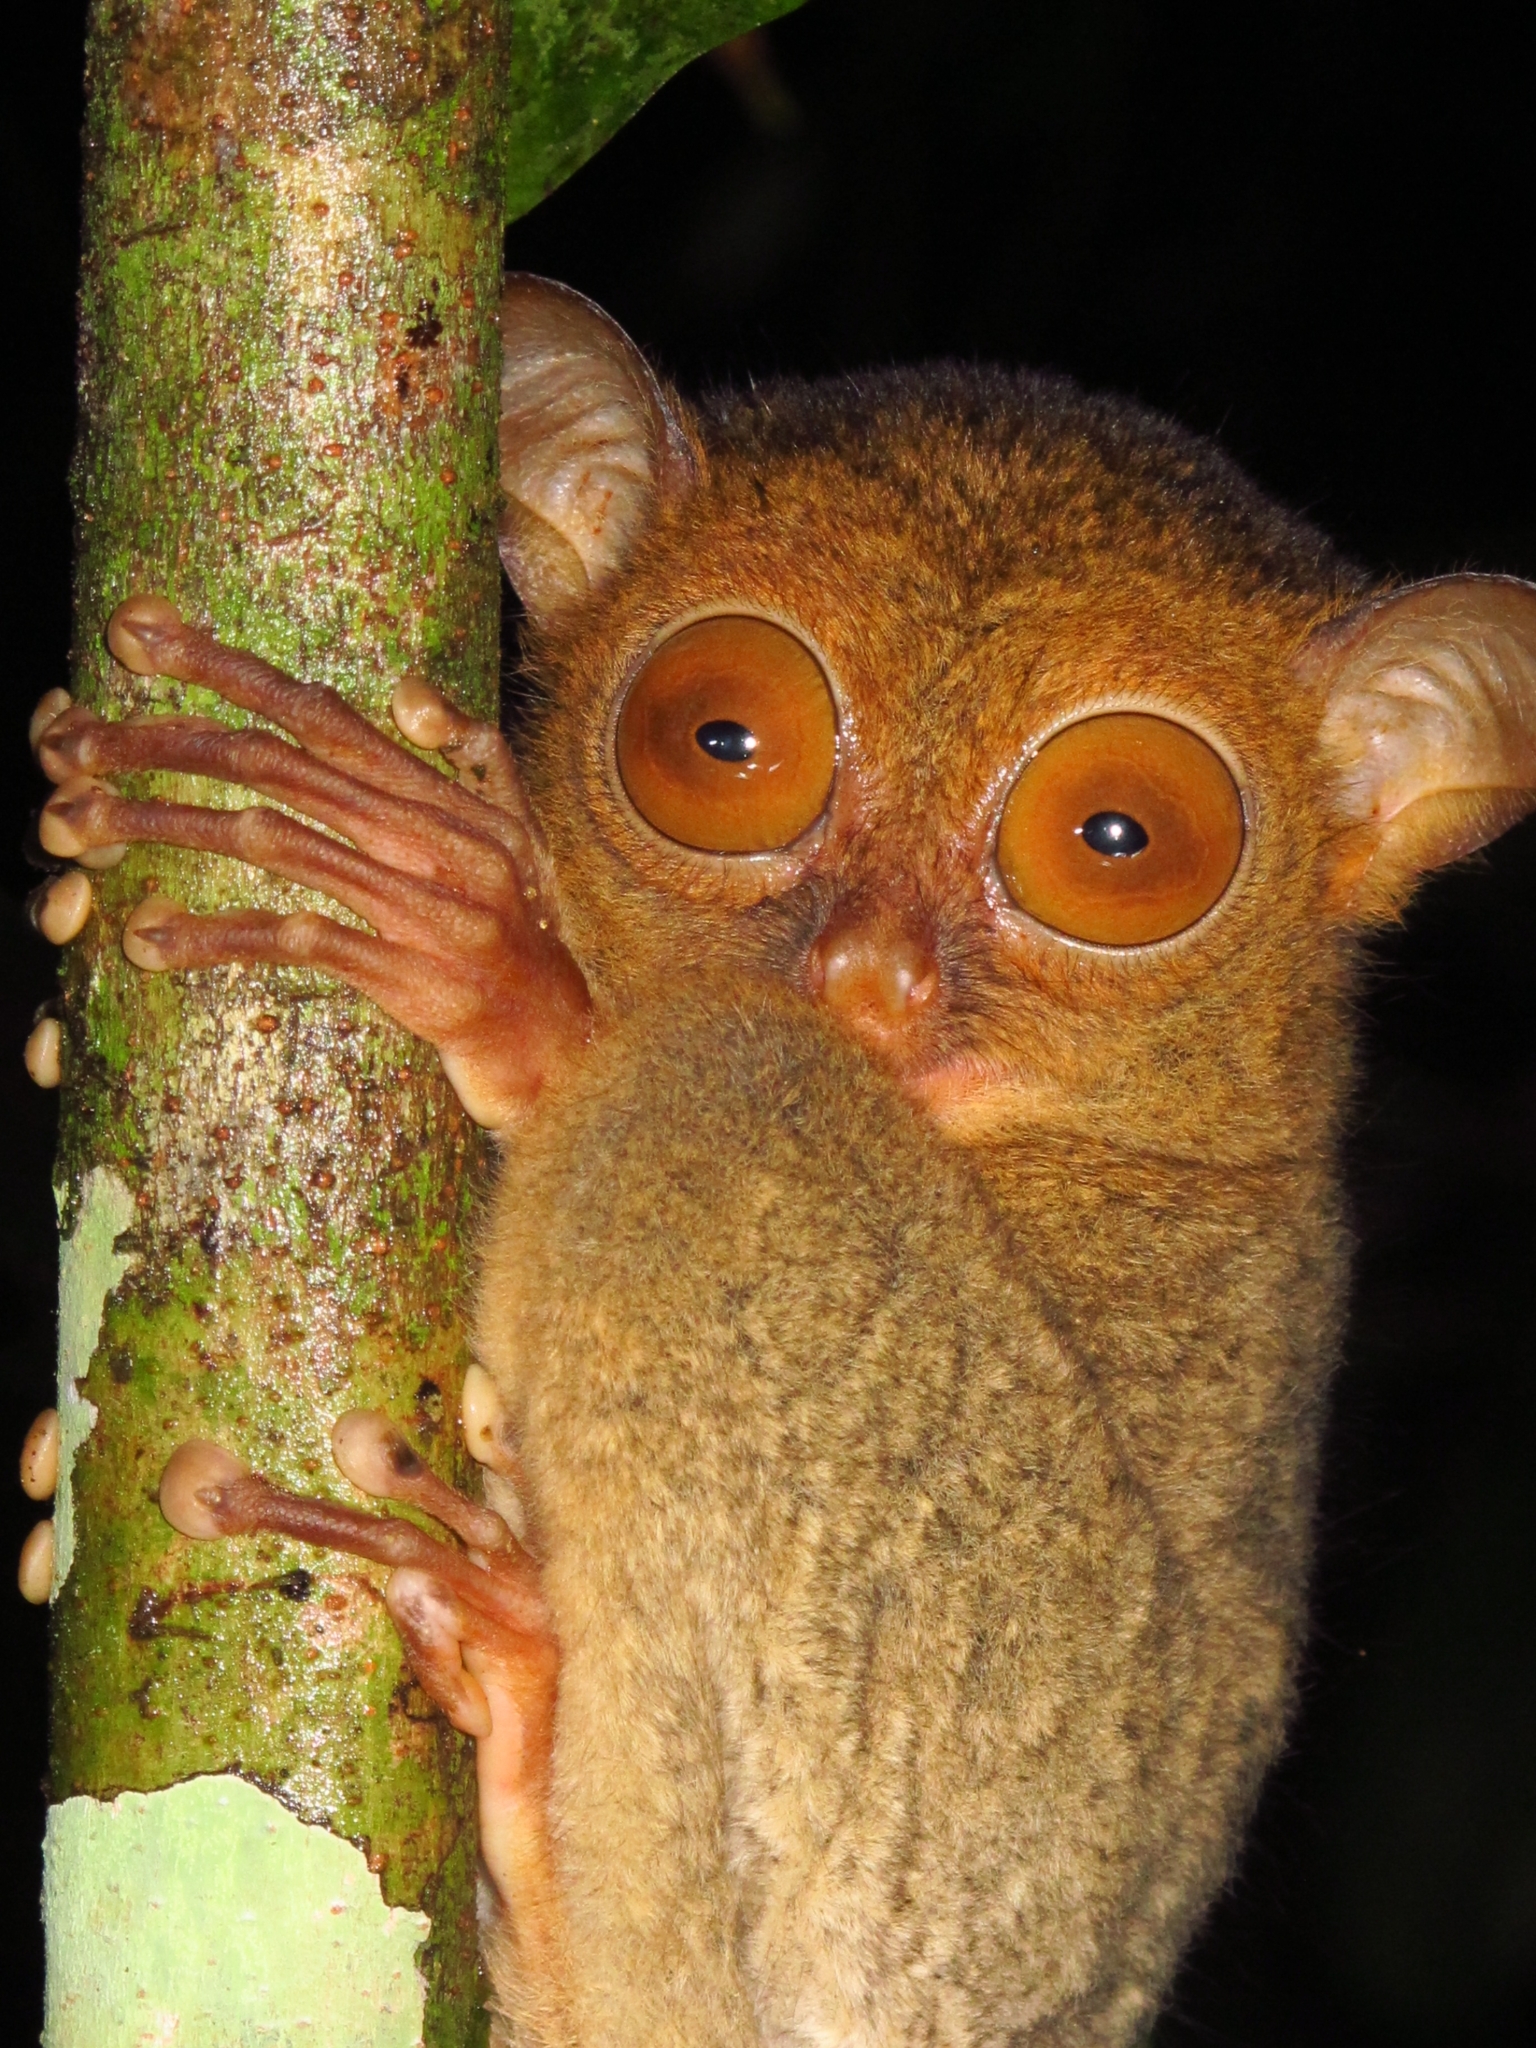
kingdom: Animalia
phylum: Chordata
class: Mammalia
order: Primates
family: Tarsiidae
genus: Cephalopachus
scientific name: Cephalopachus bancanus
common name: Western tarsier
